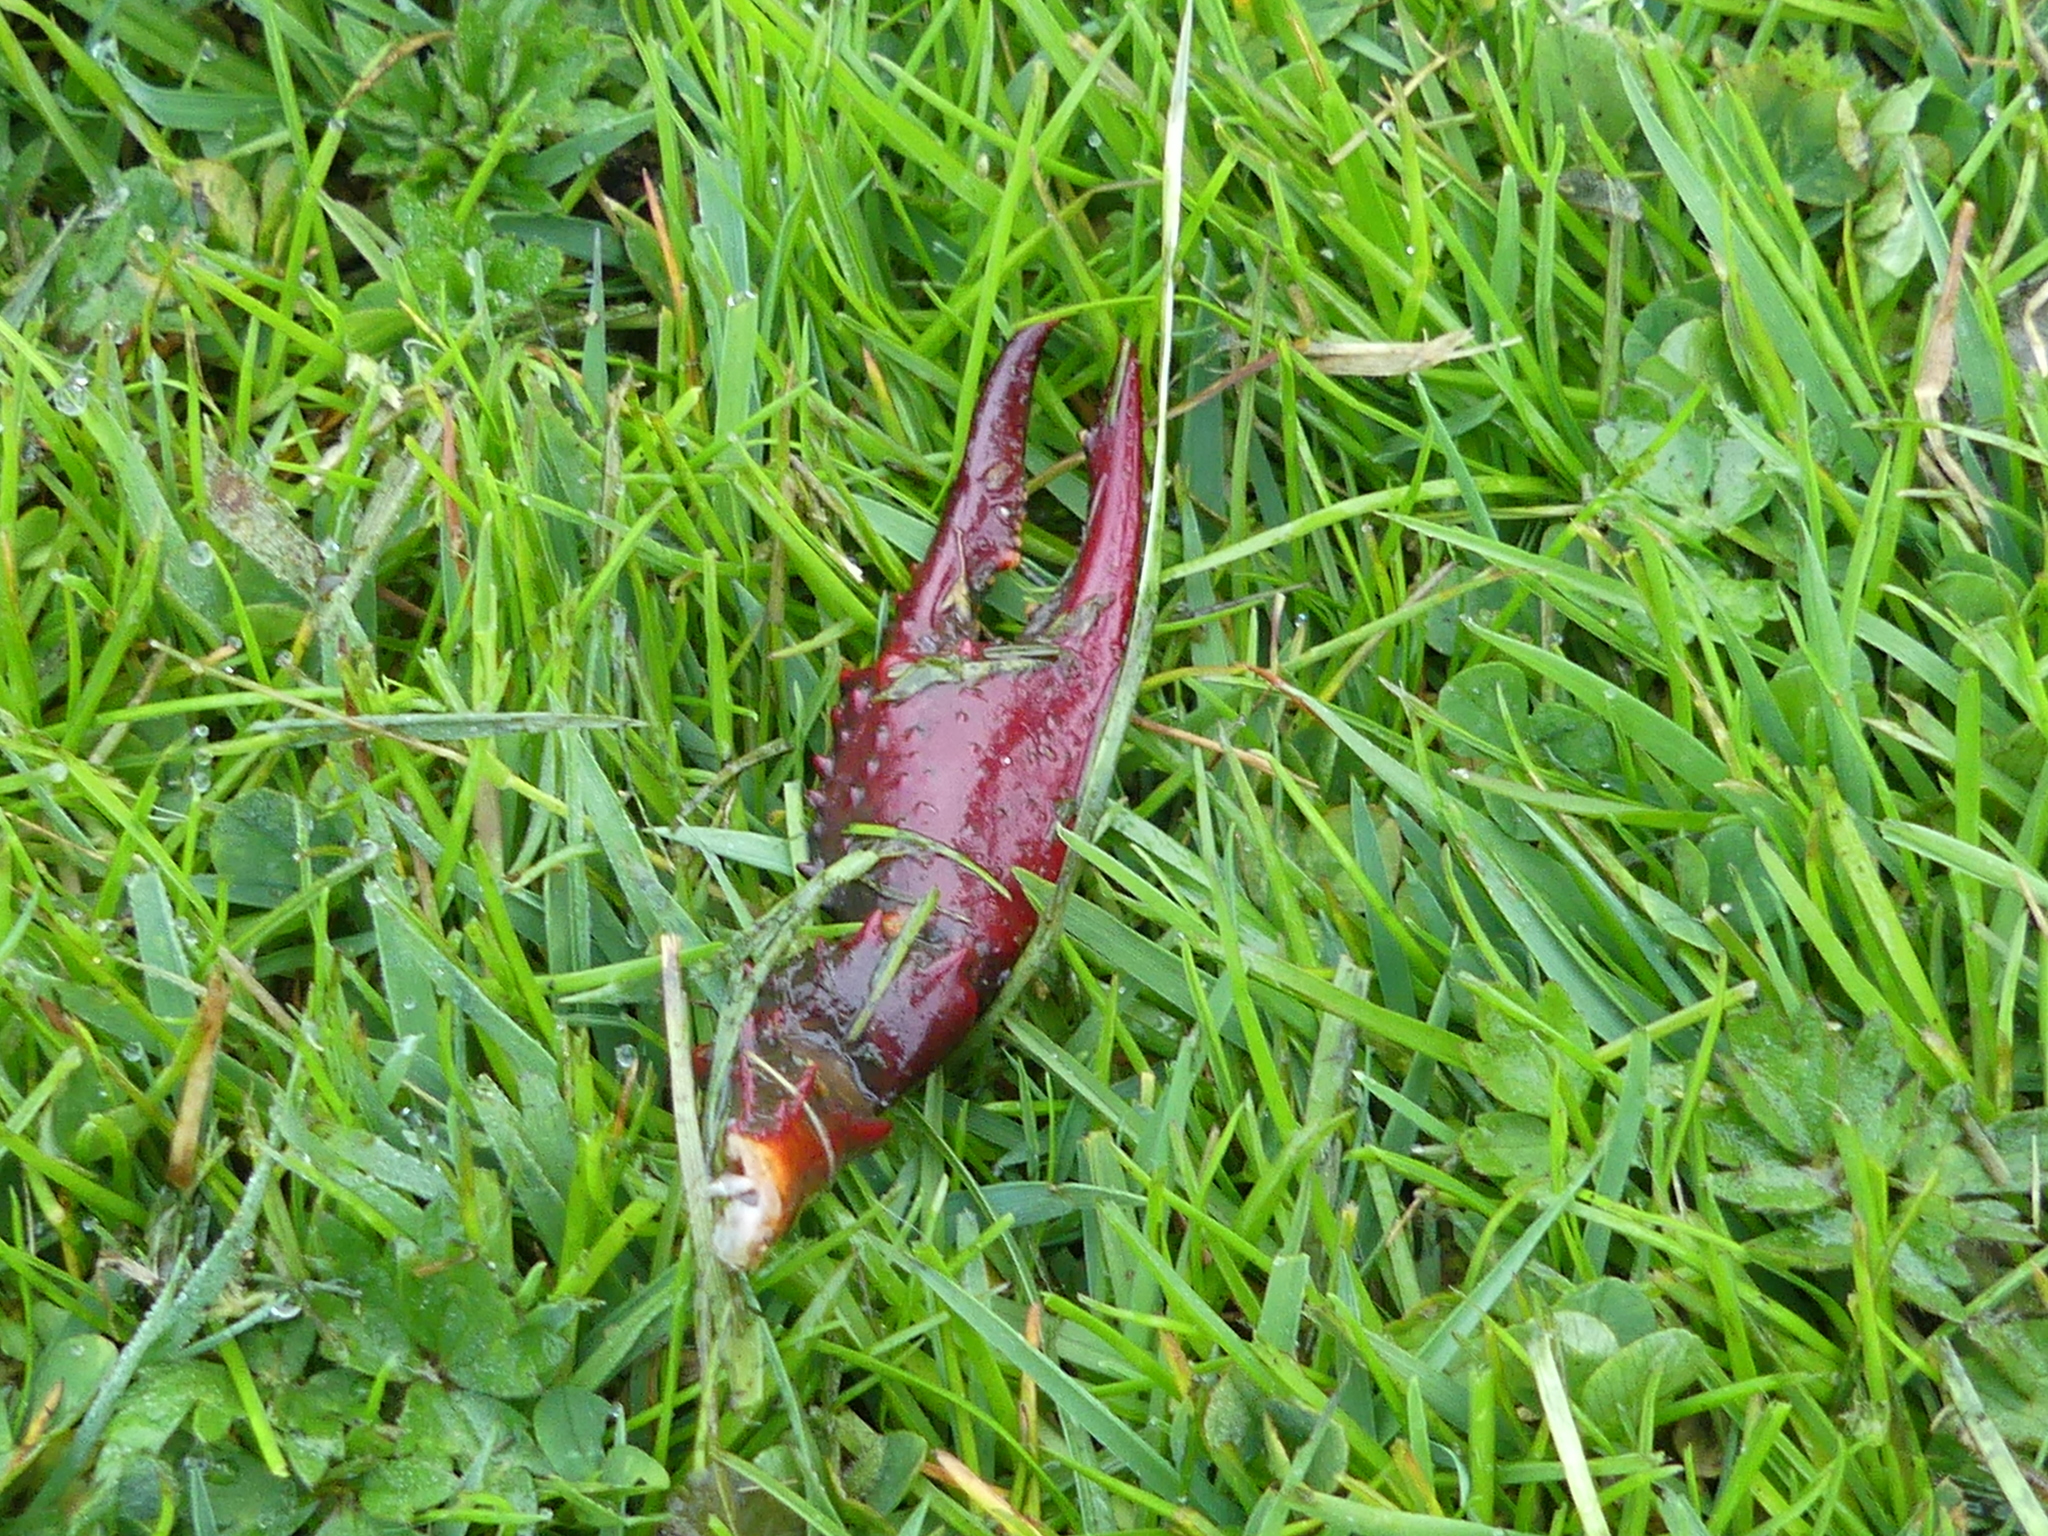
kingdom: Animalia
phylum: Arthropoda
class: Malacostraca
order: Decapoda
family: Cambaridae
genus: Procambarus
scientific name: Procambarus clarkii
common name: Red swamp crayfish
